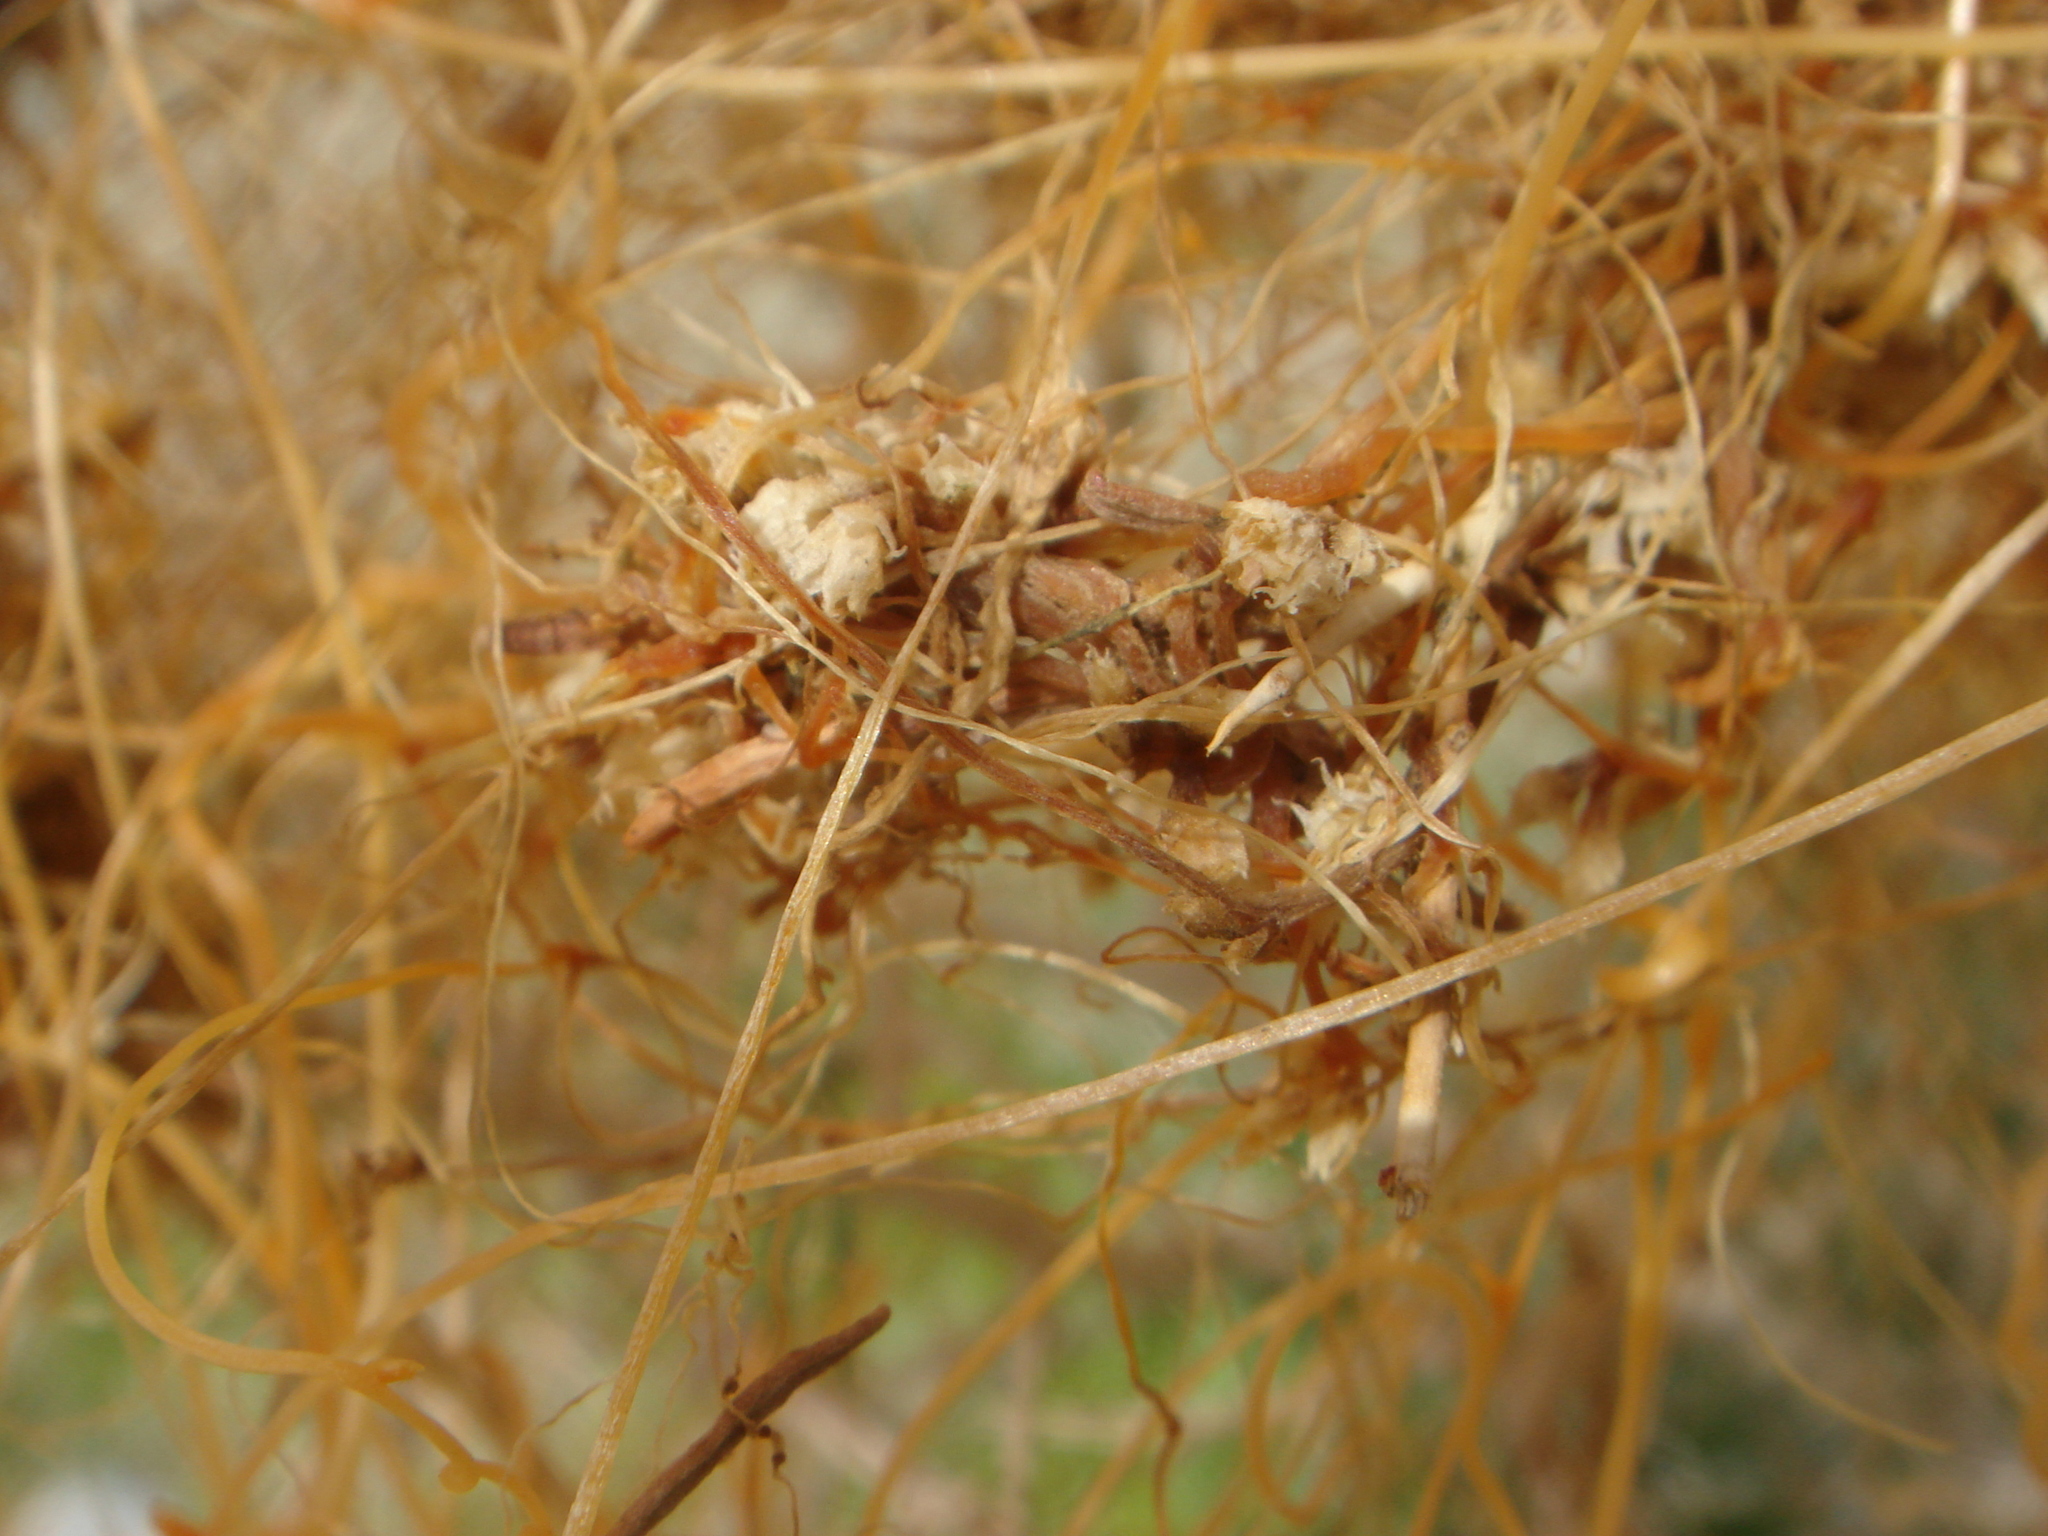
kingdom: Plantae
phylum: Tracheophyta
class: Magnoliopsida
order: Solanales
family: Convolvulaceae
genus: Cuscuta
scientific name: Cuscuta californica
